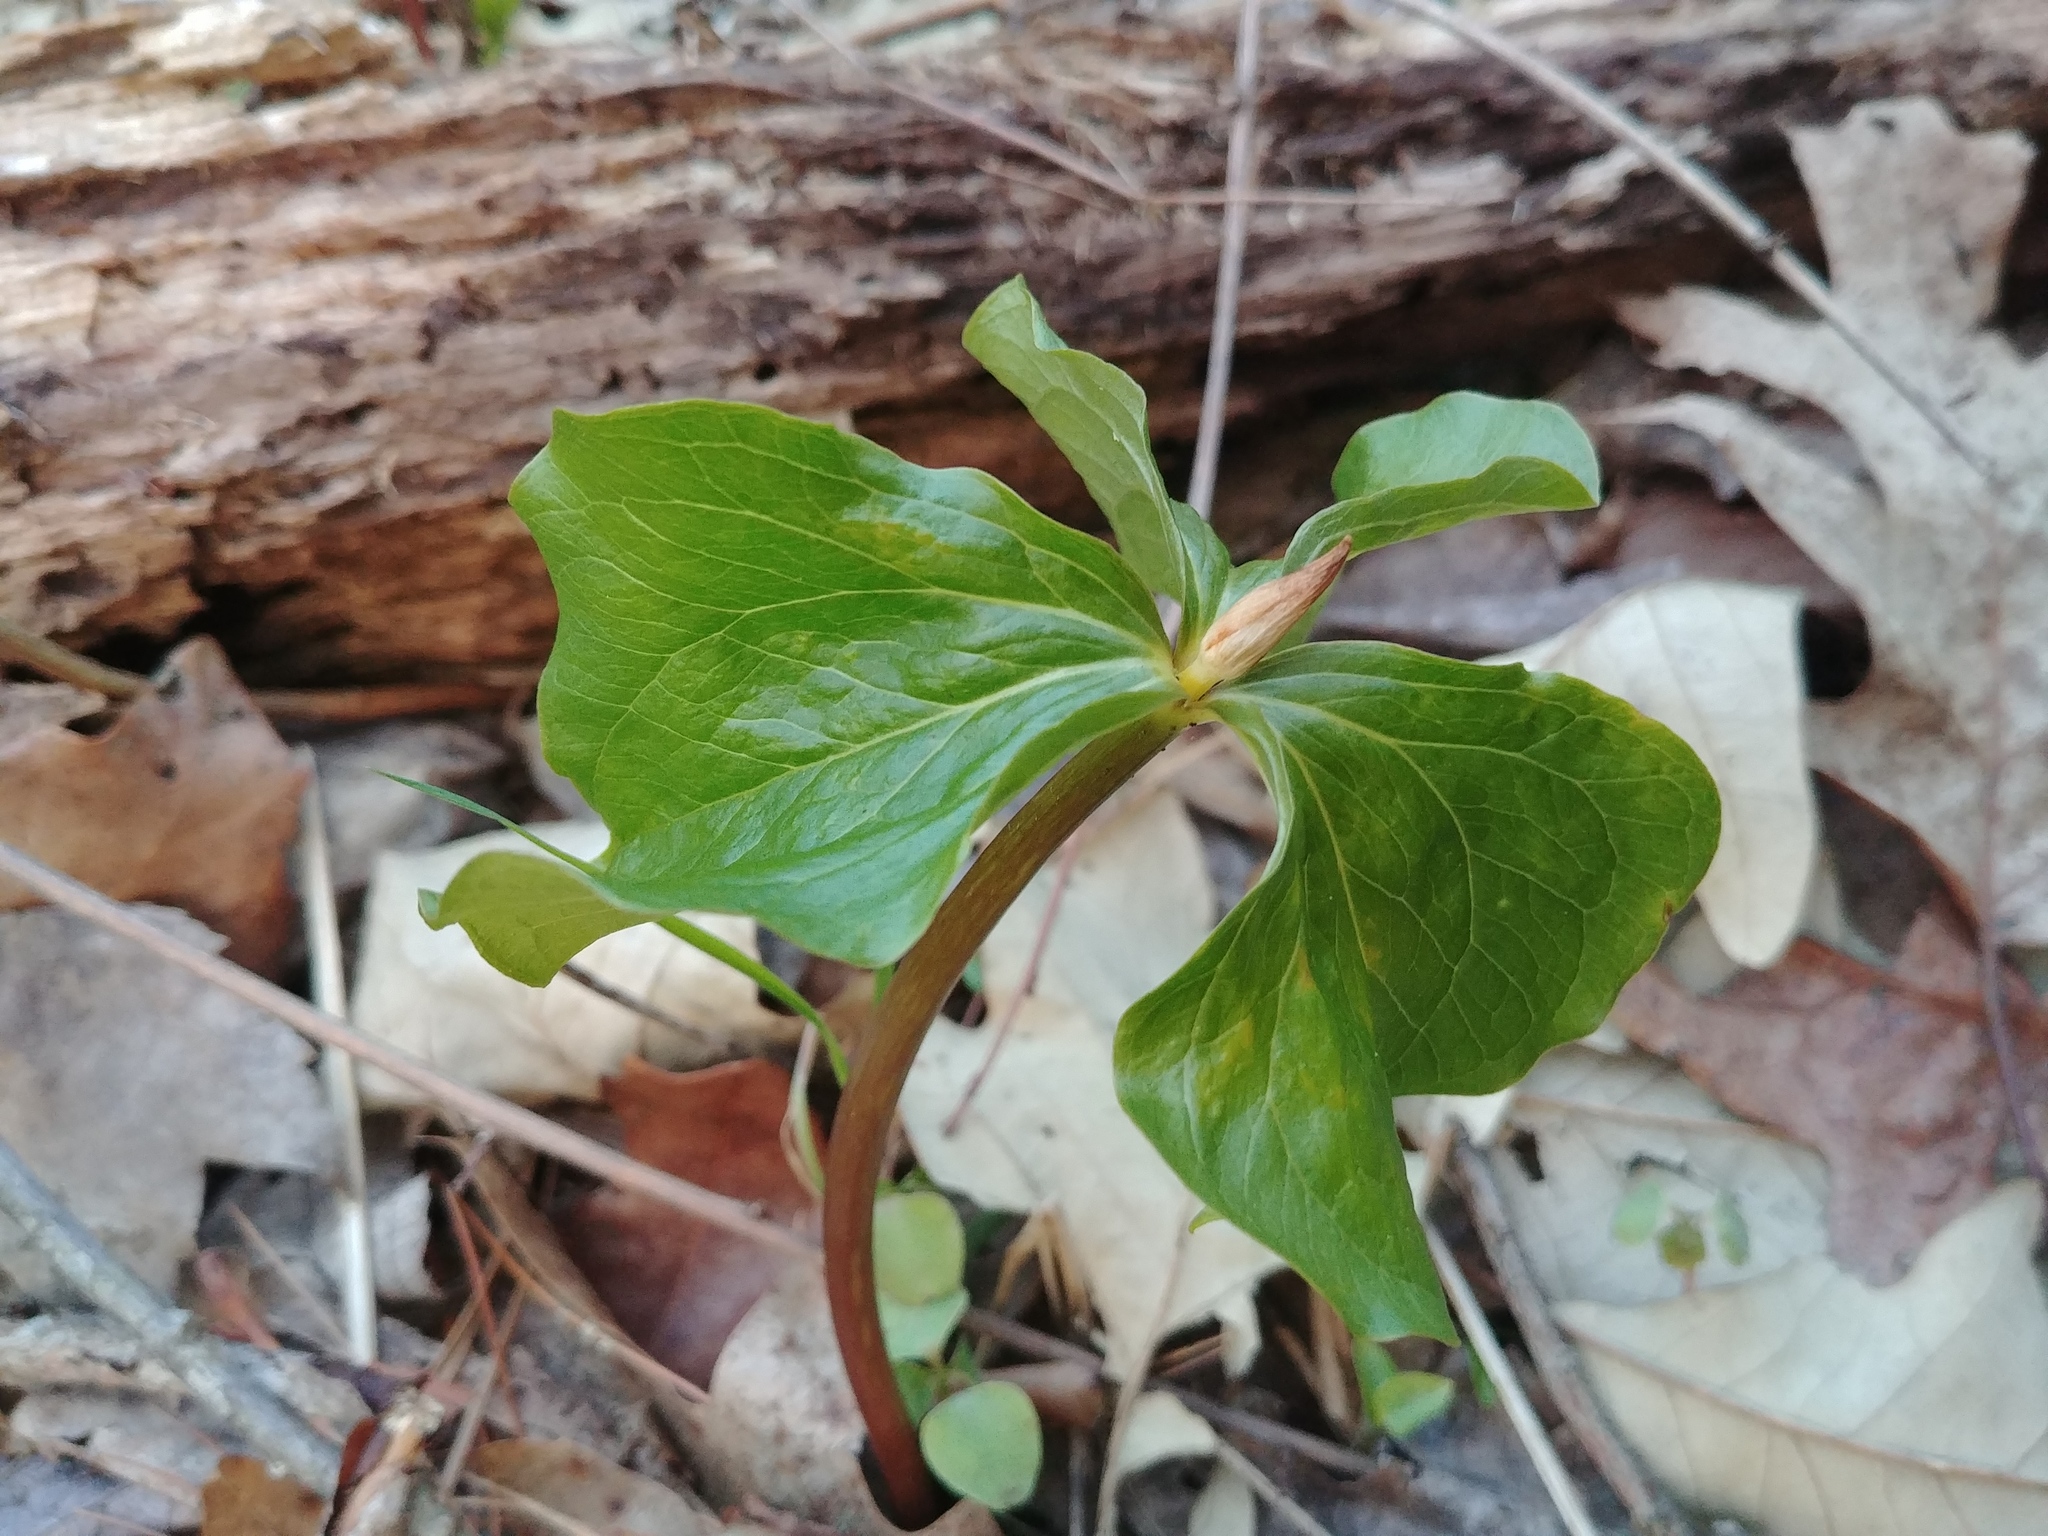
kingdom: Plantae
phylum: Tracheophyta
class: Liliopsida
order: Liliales
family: Melanthiaceae
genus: Trillium
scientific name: Trillium cernuum
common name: Nodding trillium
